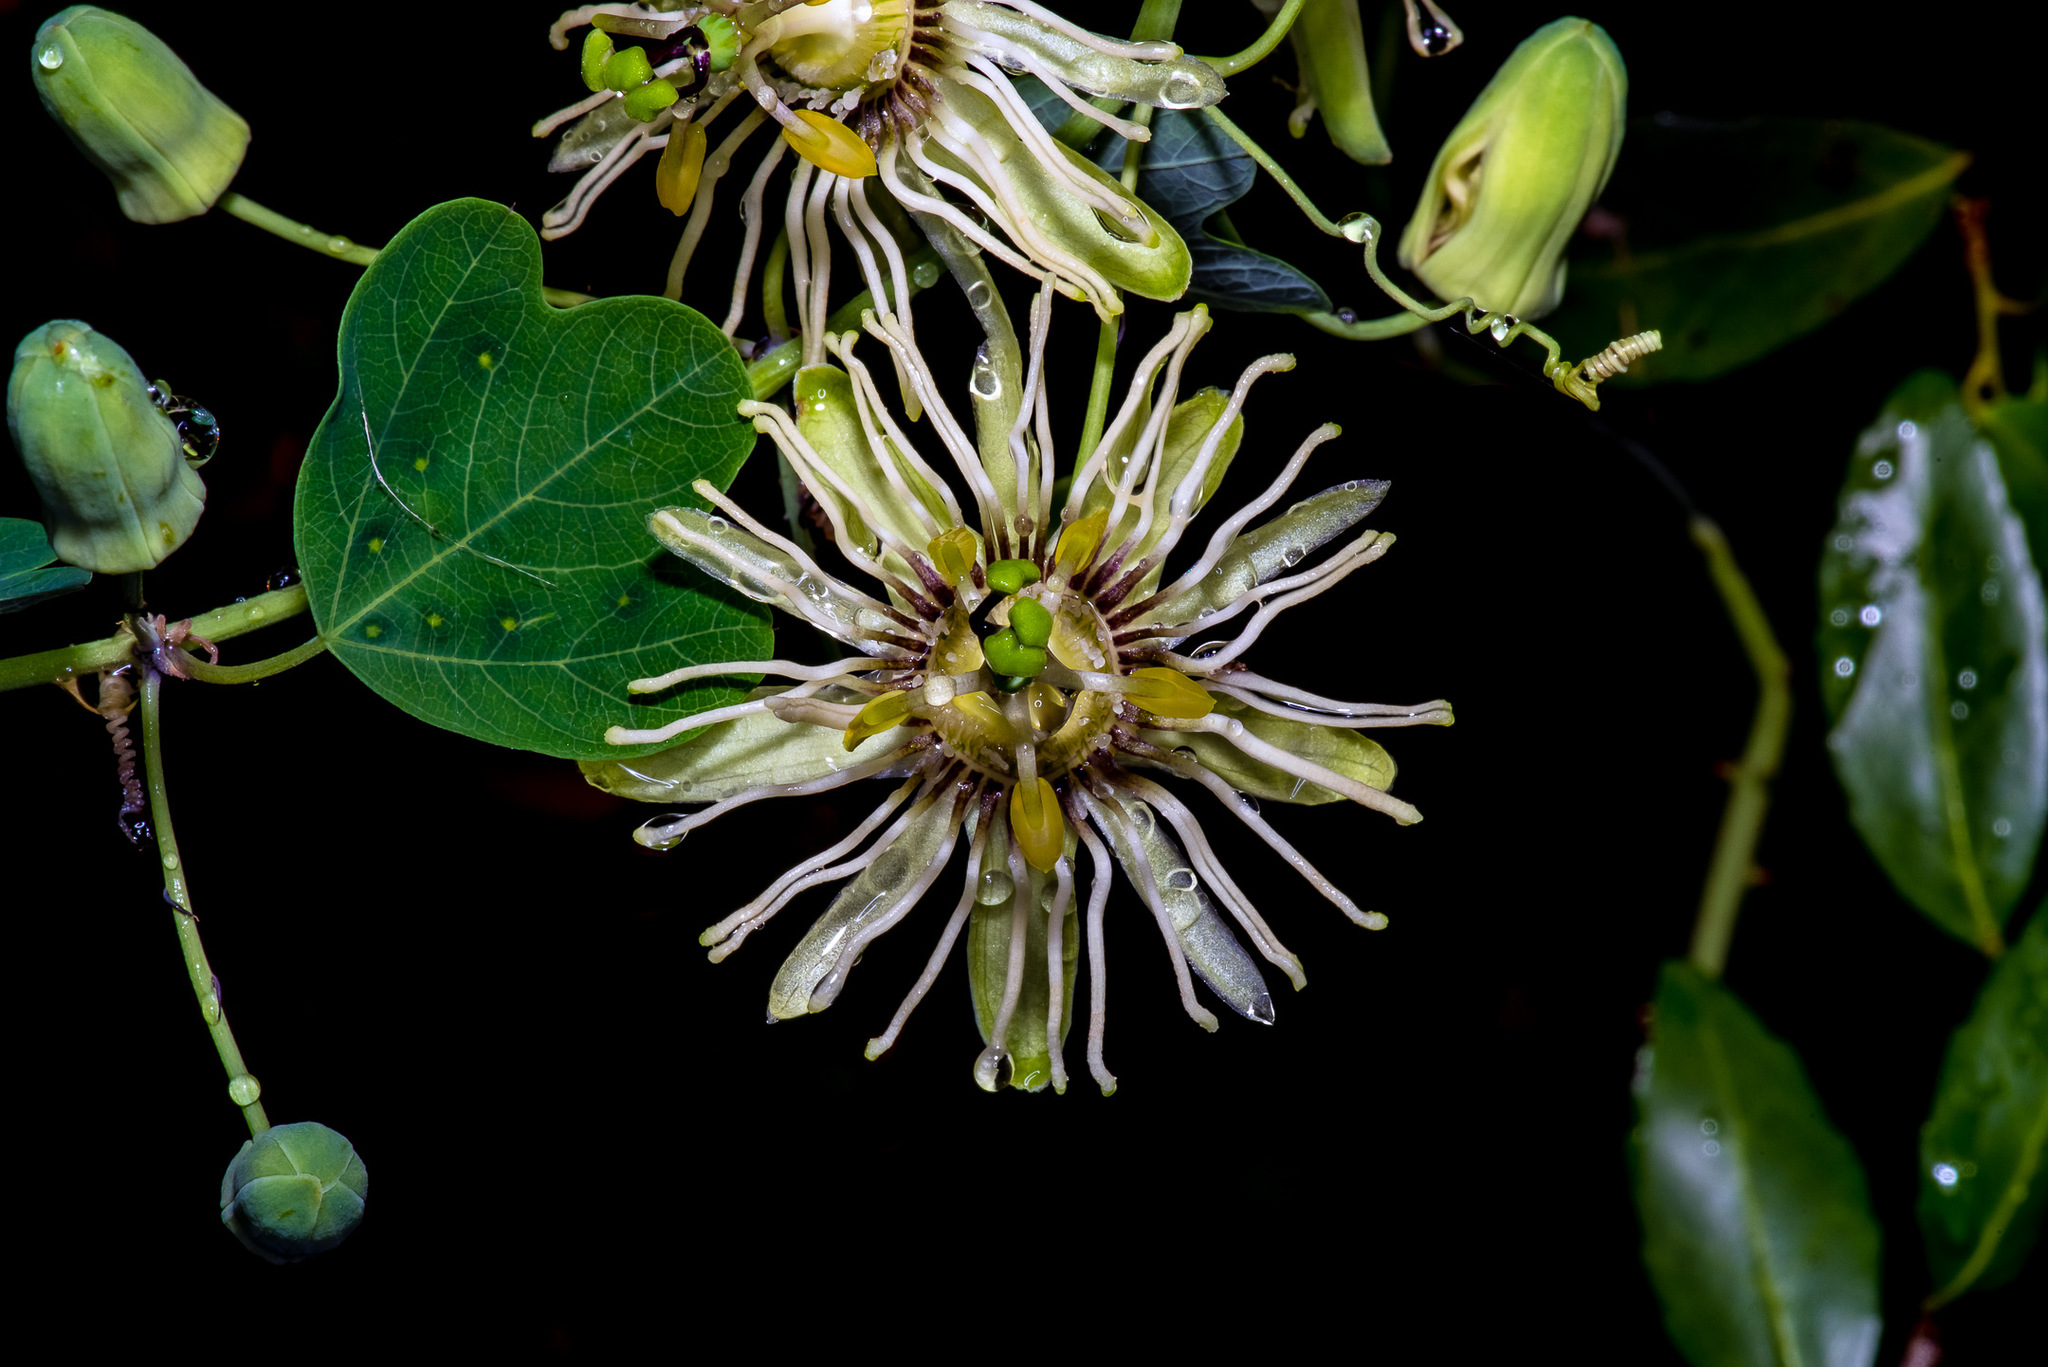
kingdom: Plantae
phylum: Tracheophyta
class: Magnoliopsida
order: Malpighiales
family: Passifloraceae
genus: Passiflora
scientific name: Passiflora affinis
